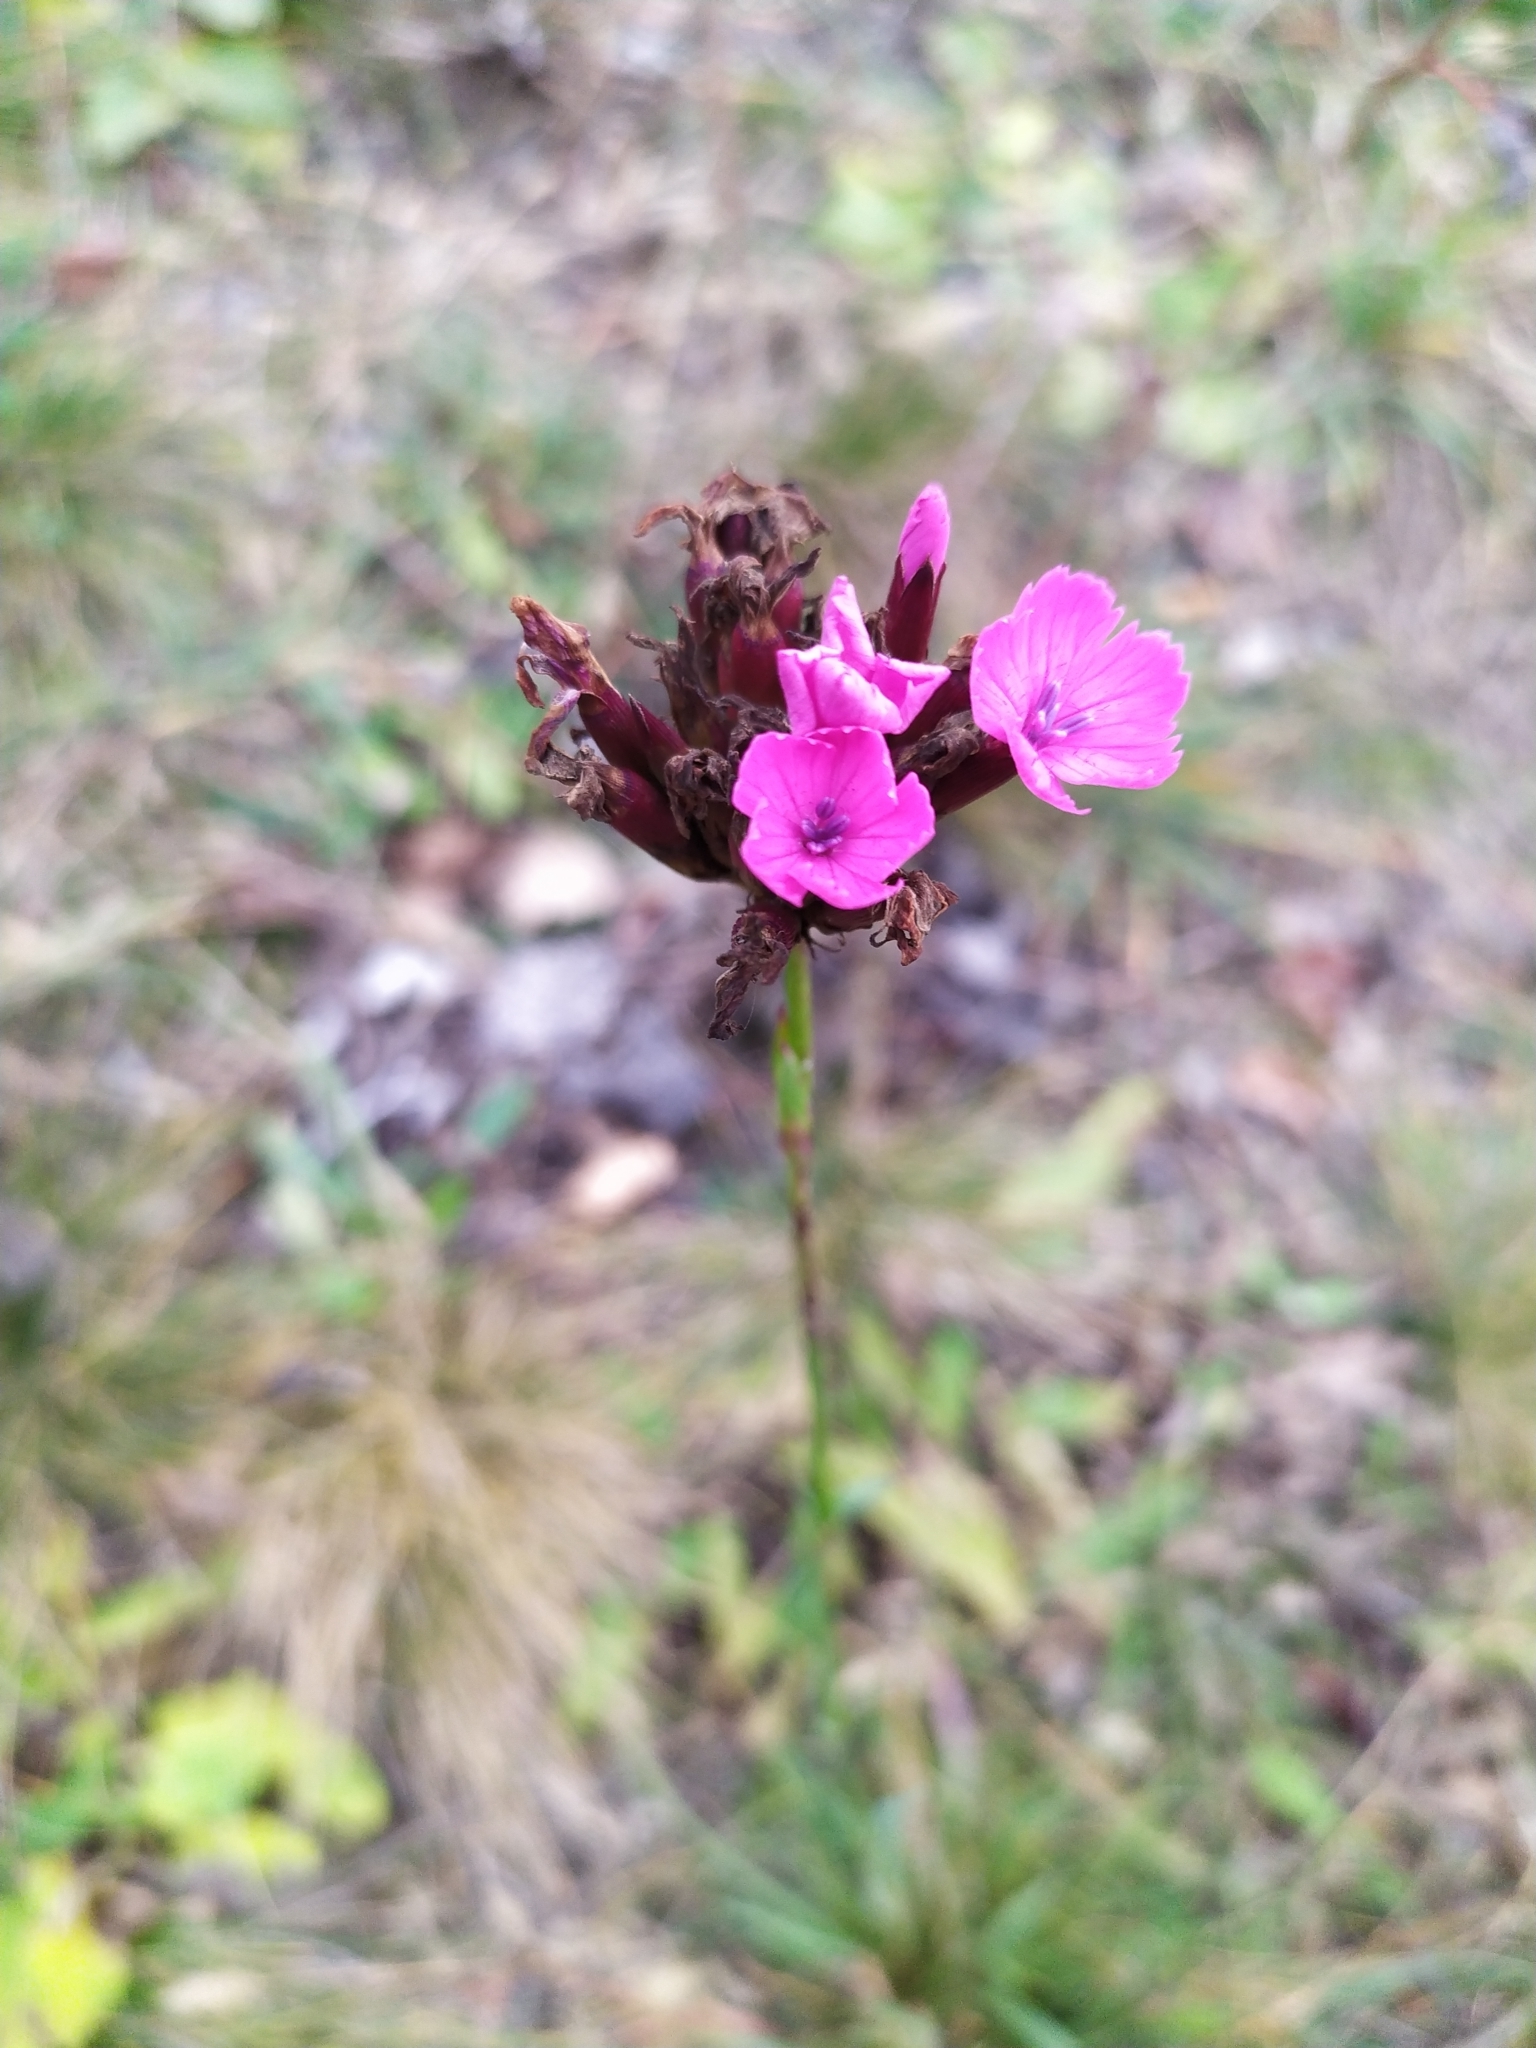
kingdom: Plantae
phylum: Tracheophyta
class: Magnoliopsida
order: Caryophyllales
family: Caryophyllaceae
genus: Dianthus
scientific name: Dianthus carthusianorum
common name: Carthusian pink
